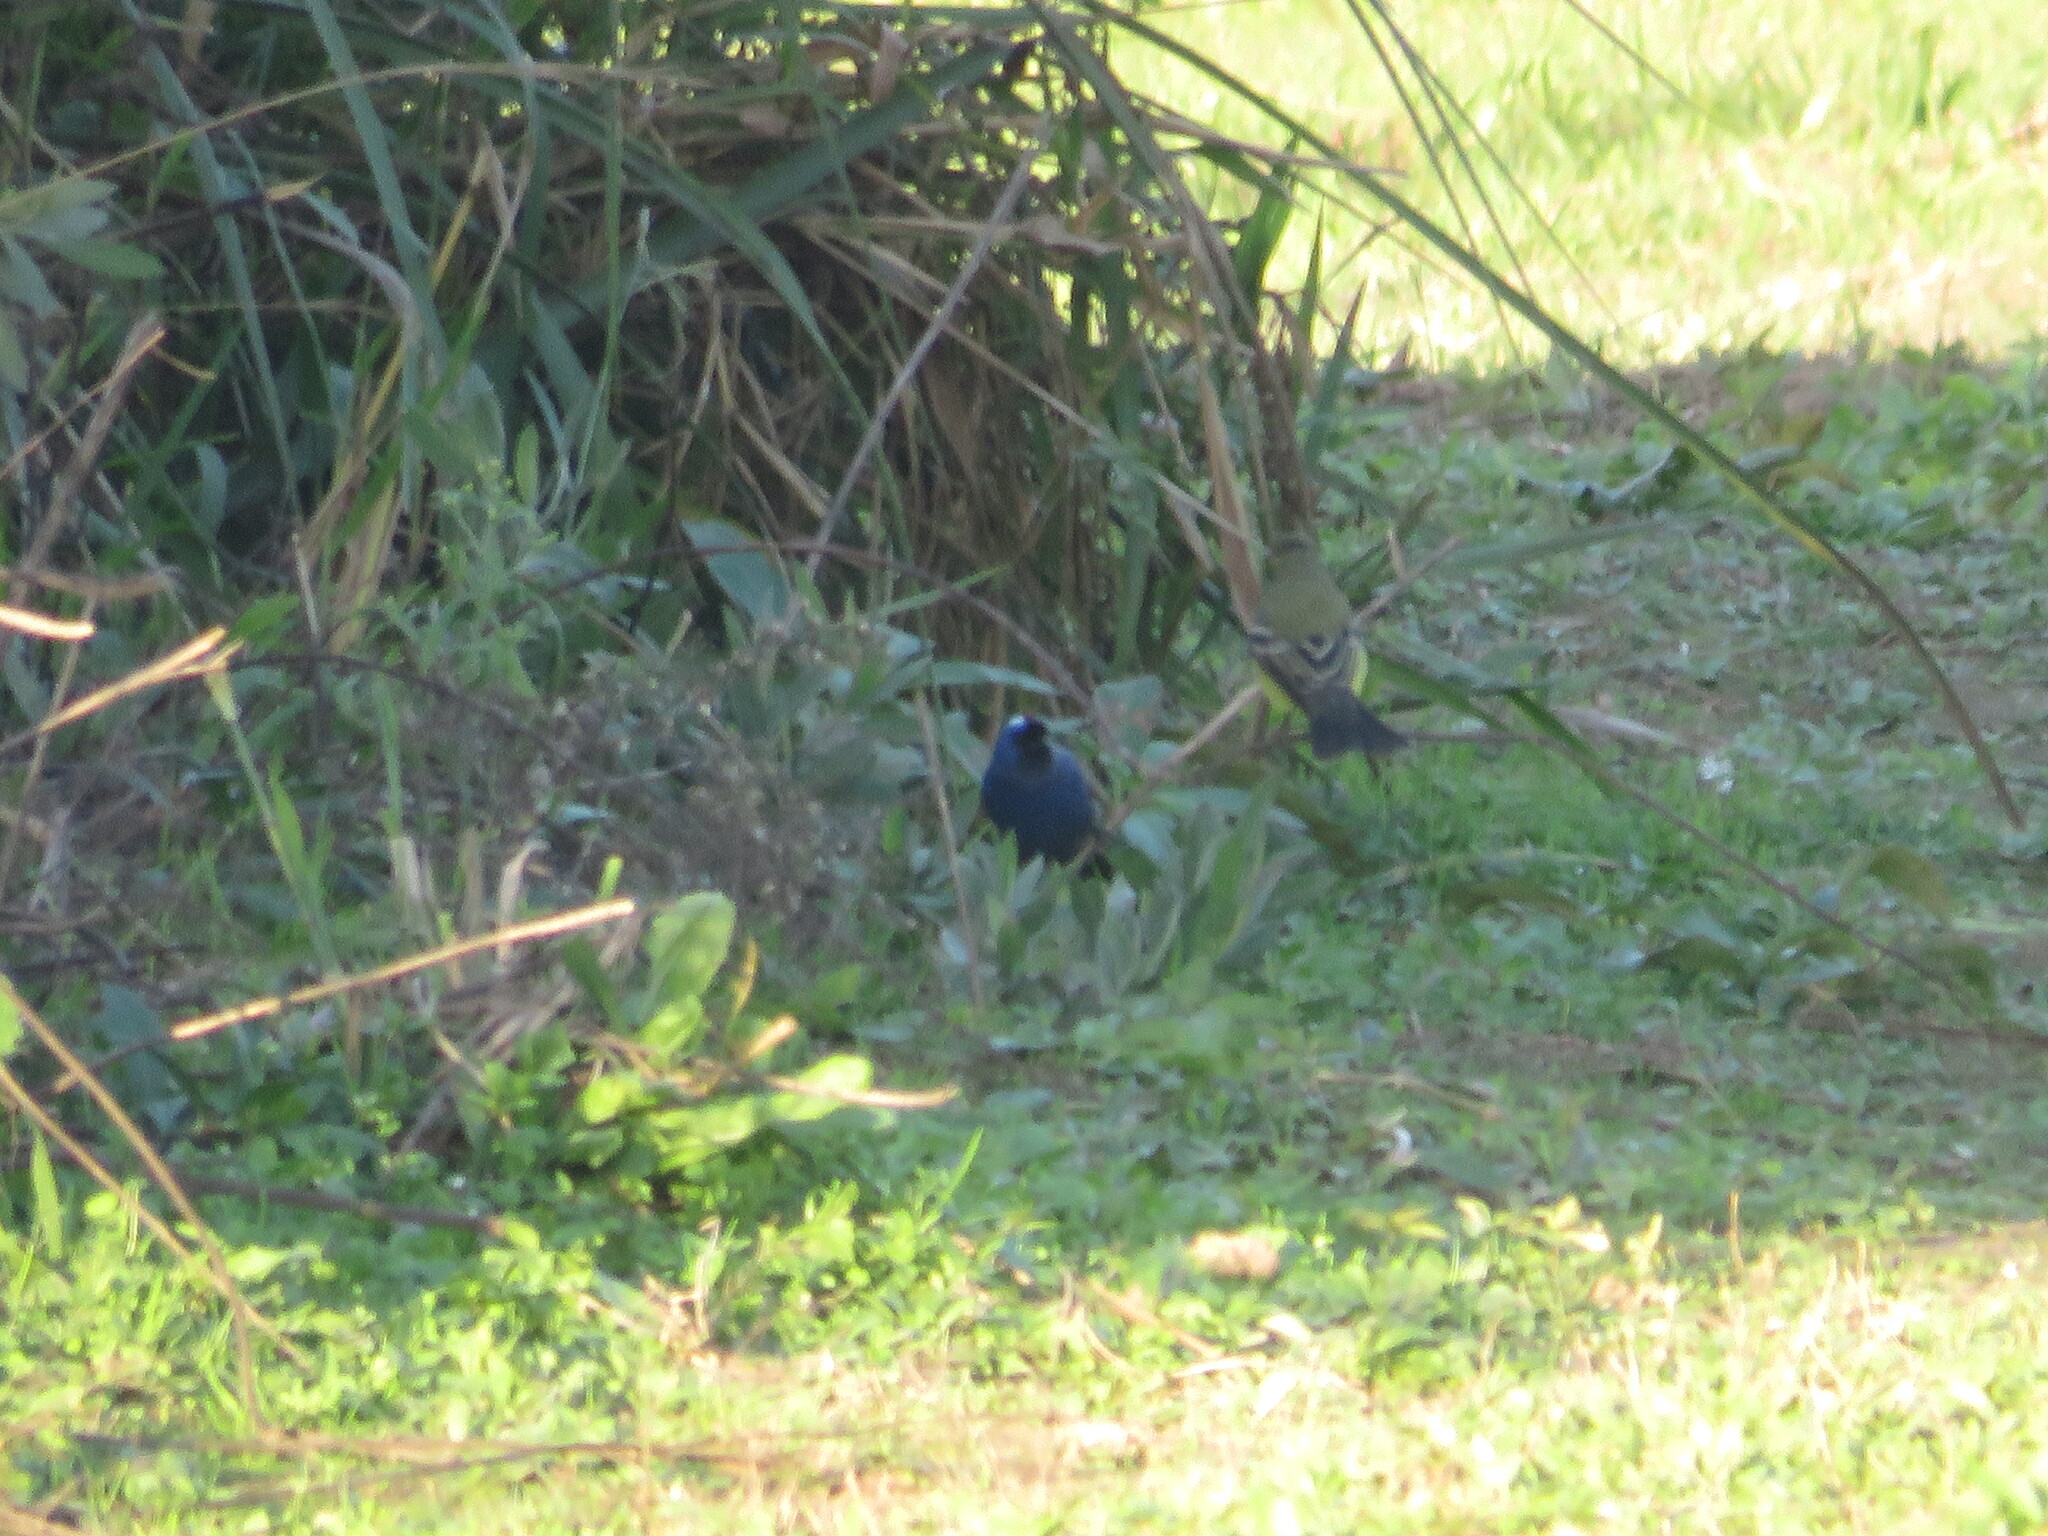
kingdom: Animalia
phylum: Chordata
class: Aves
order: Passeriformes
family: Thraupidae
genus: Stephanophorus
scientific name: Stephanophorus diadematus
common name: Diademed tanager
